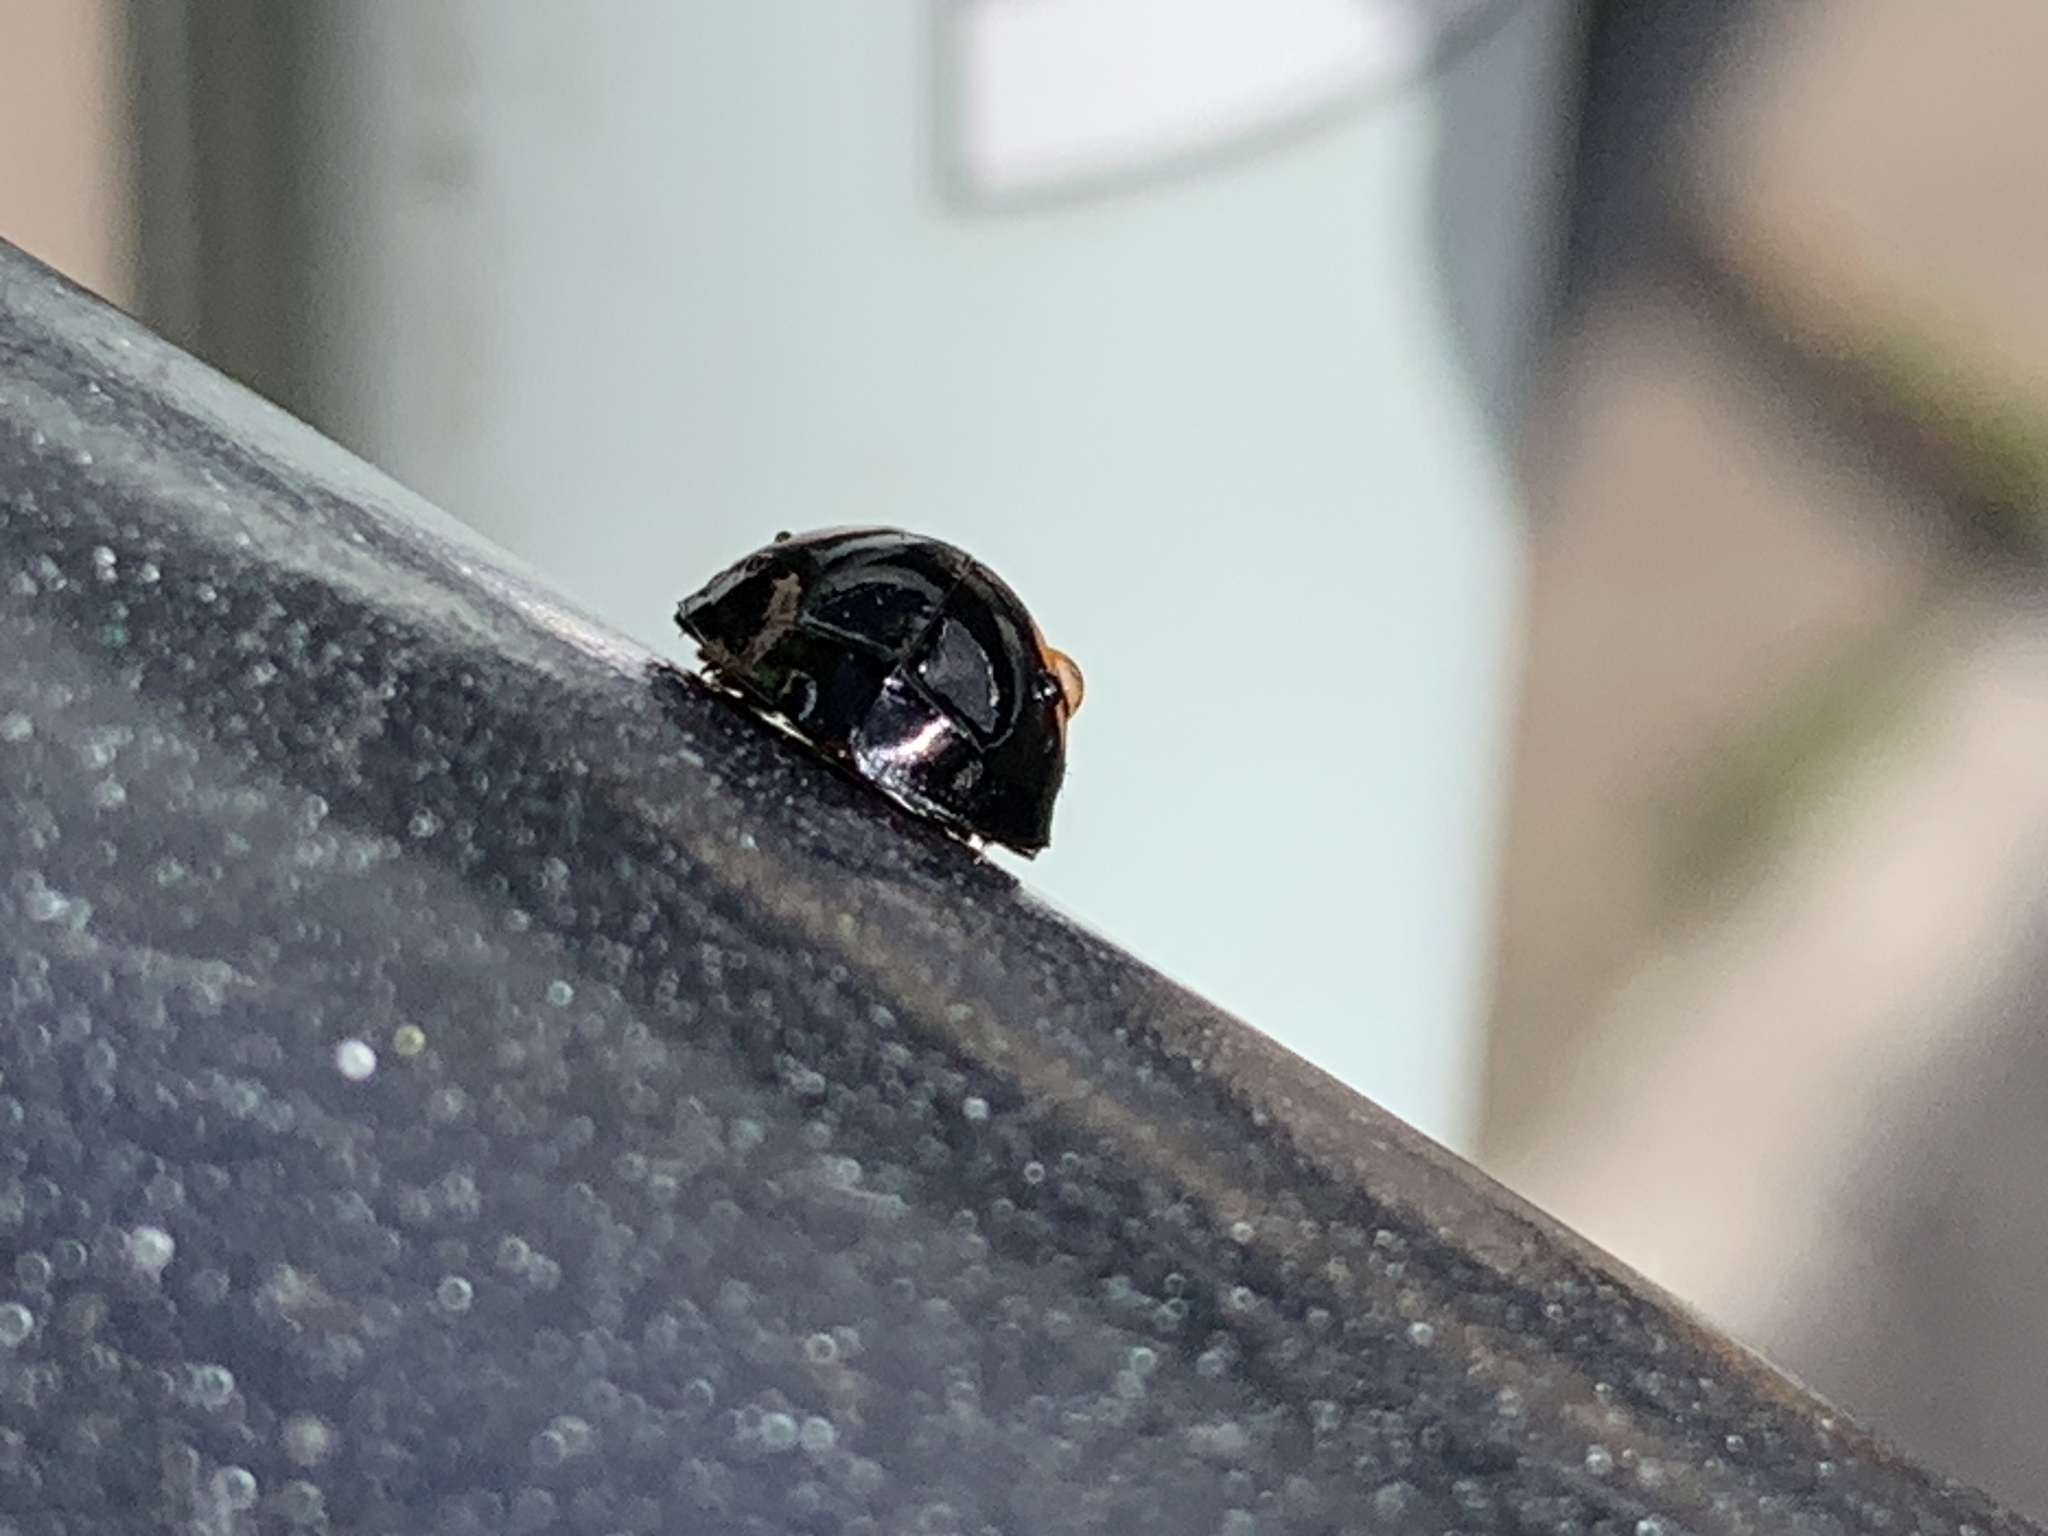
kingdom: Animalia
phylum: Arthropoda
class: Insecta
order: Coleoptera
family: Coccinellidae
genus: Harmonia
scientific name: Harmonia axyridis
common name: Harlequin ladybird
